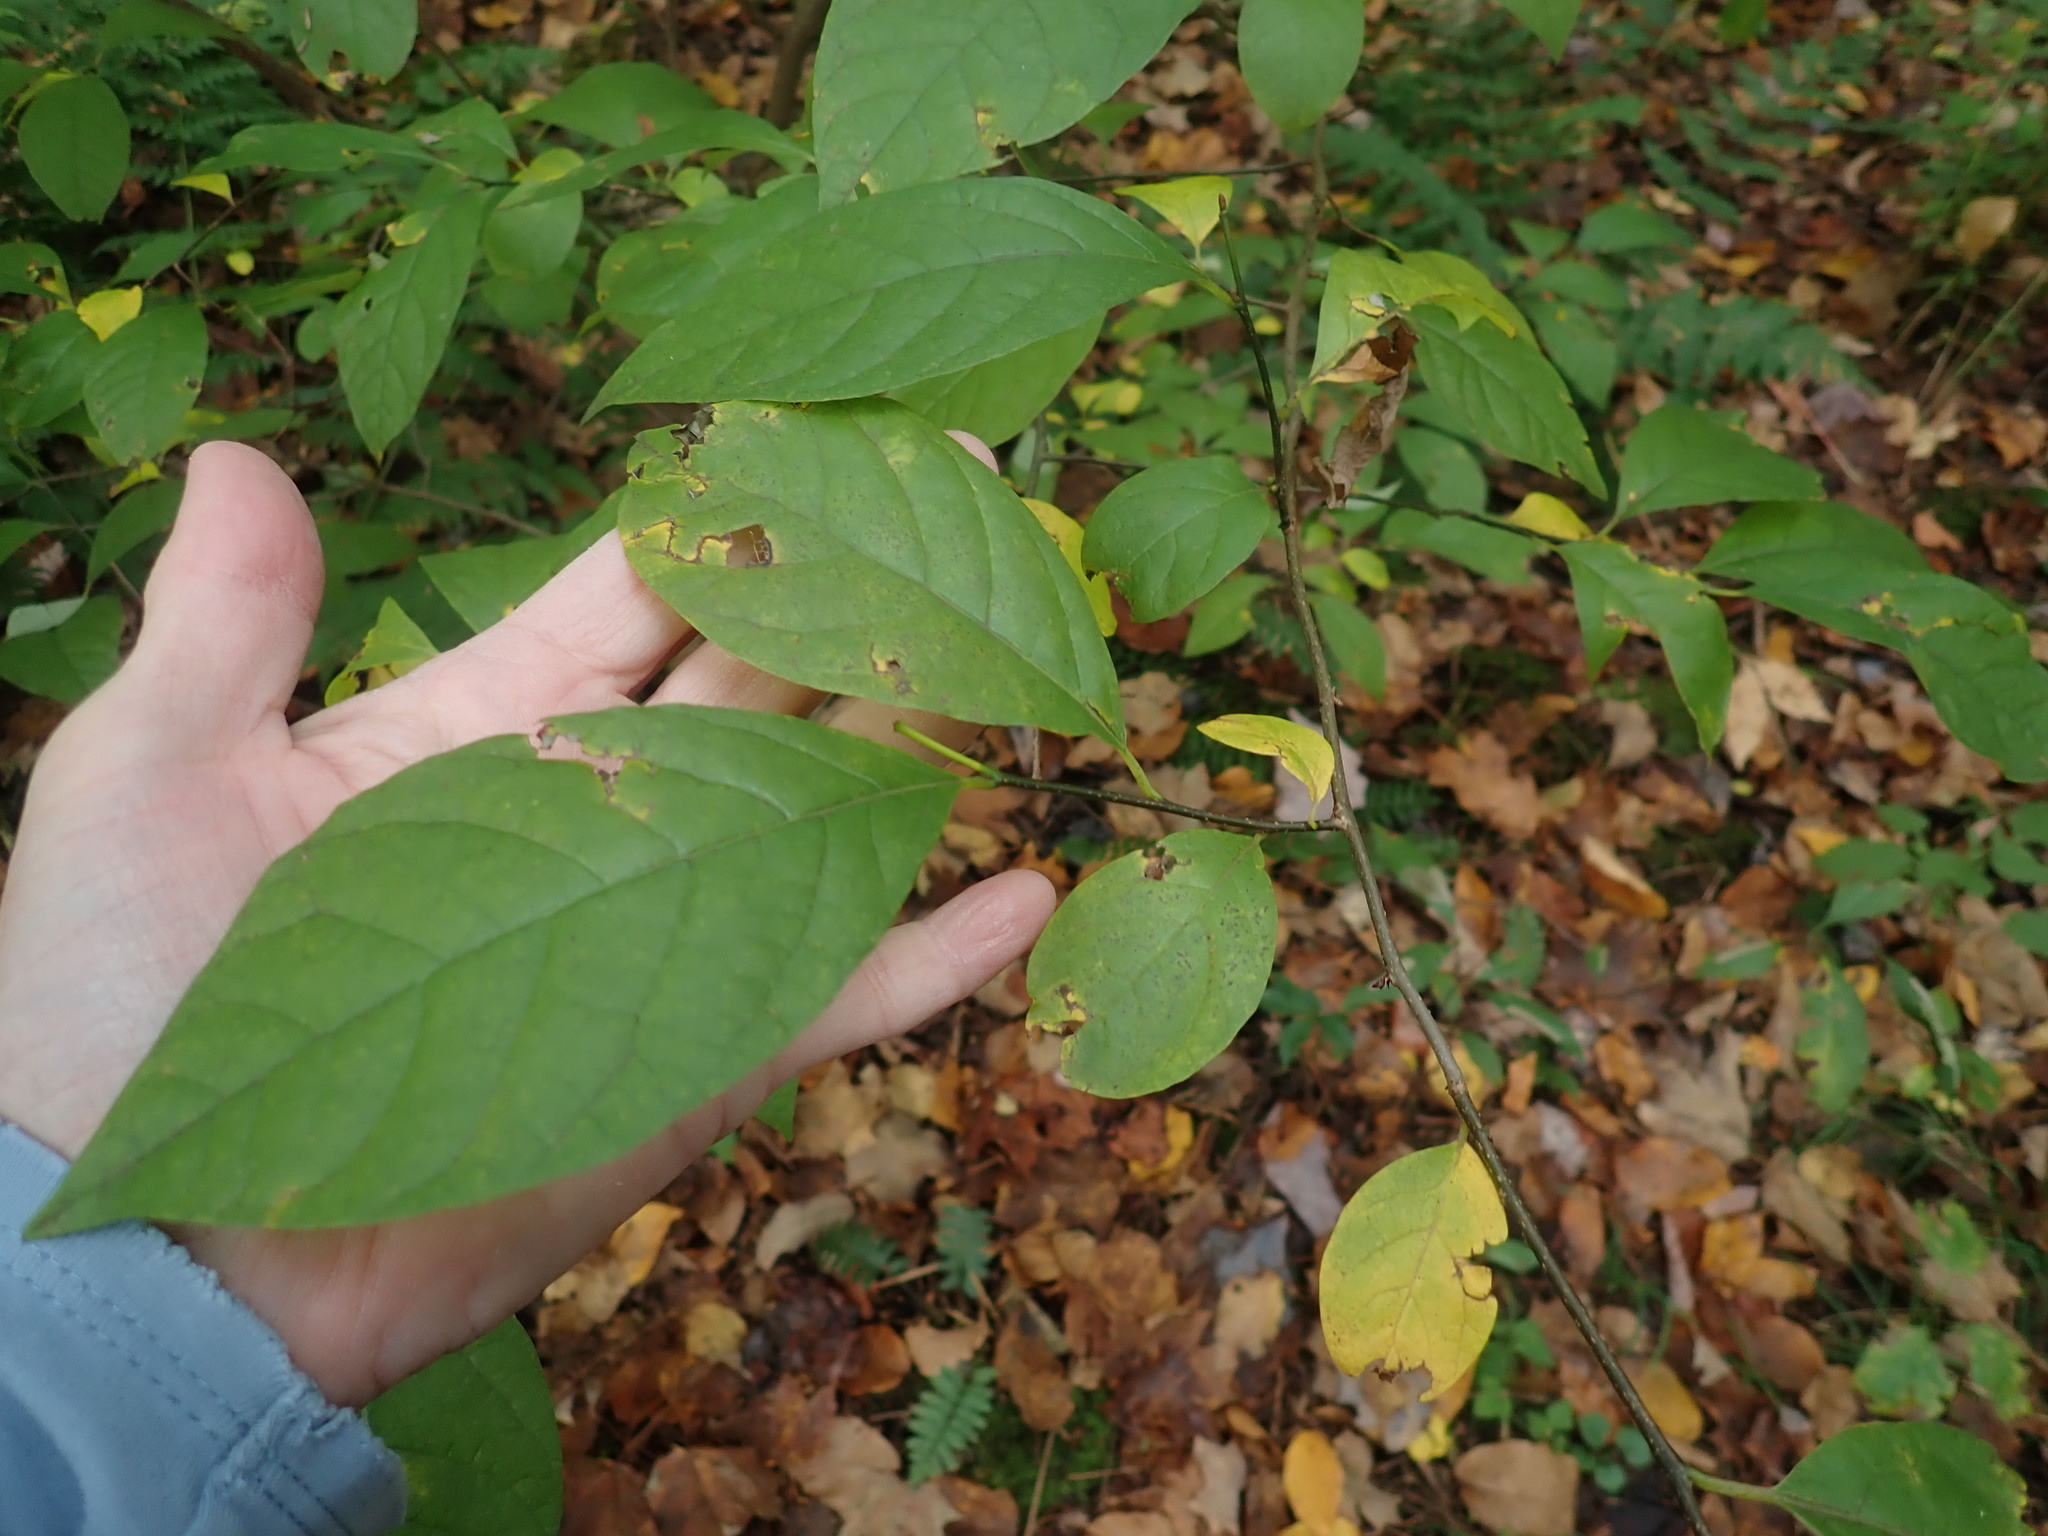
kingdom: Plantae
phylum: Tracheophyta
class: Magnoliopsida
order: Laurales
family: Lauraceae
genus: Lindera
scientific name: Lindera benzoin
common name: Spicebush
